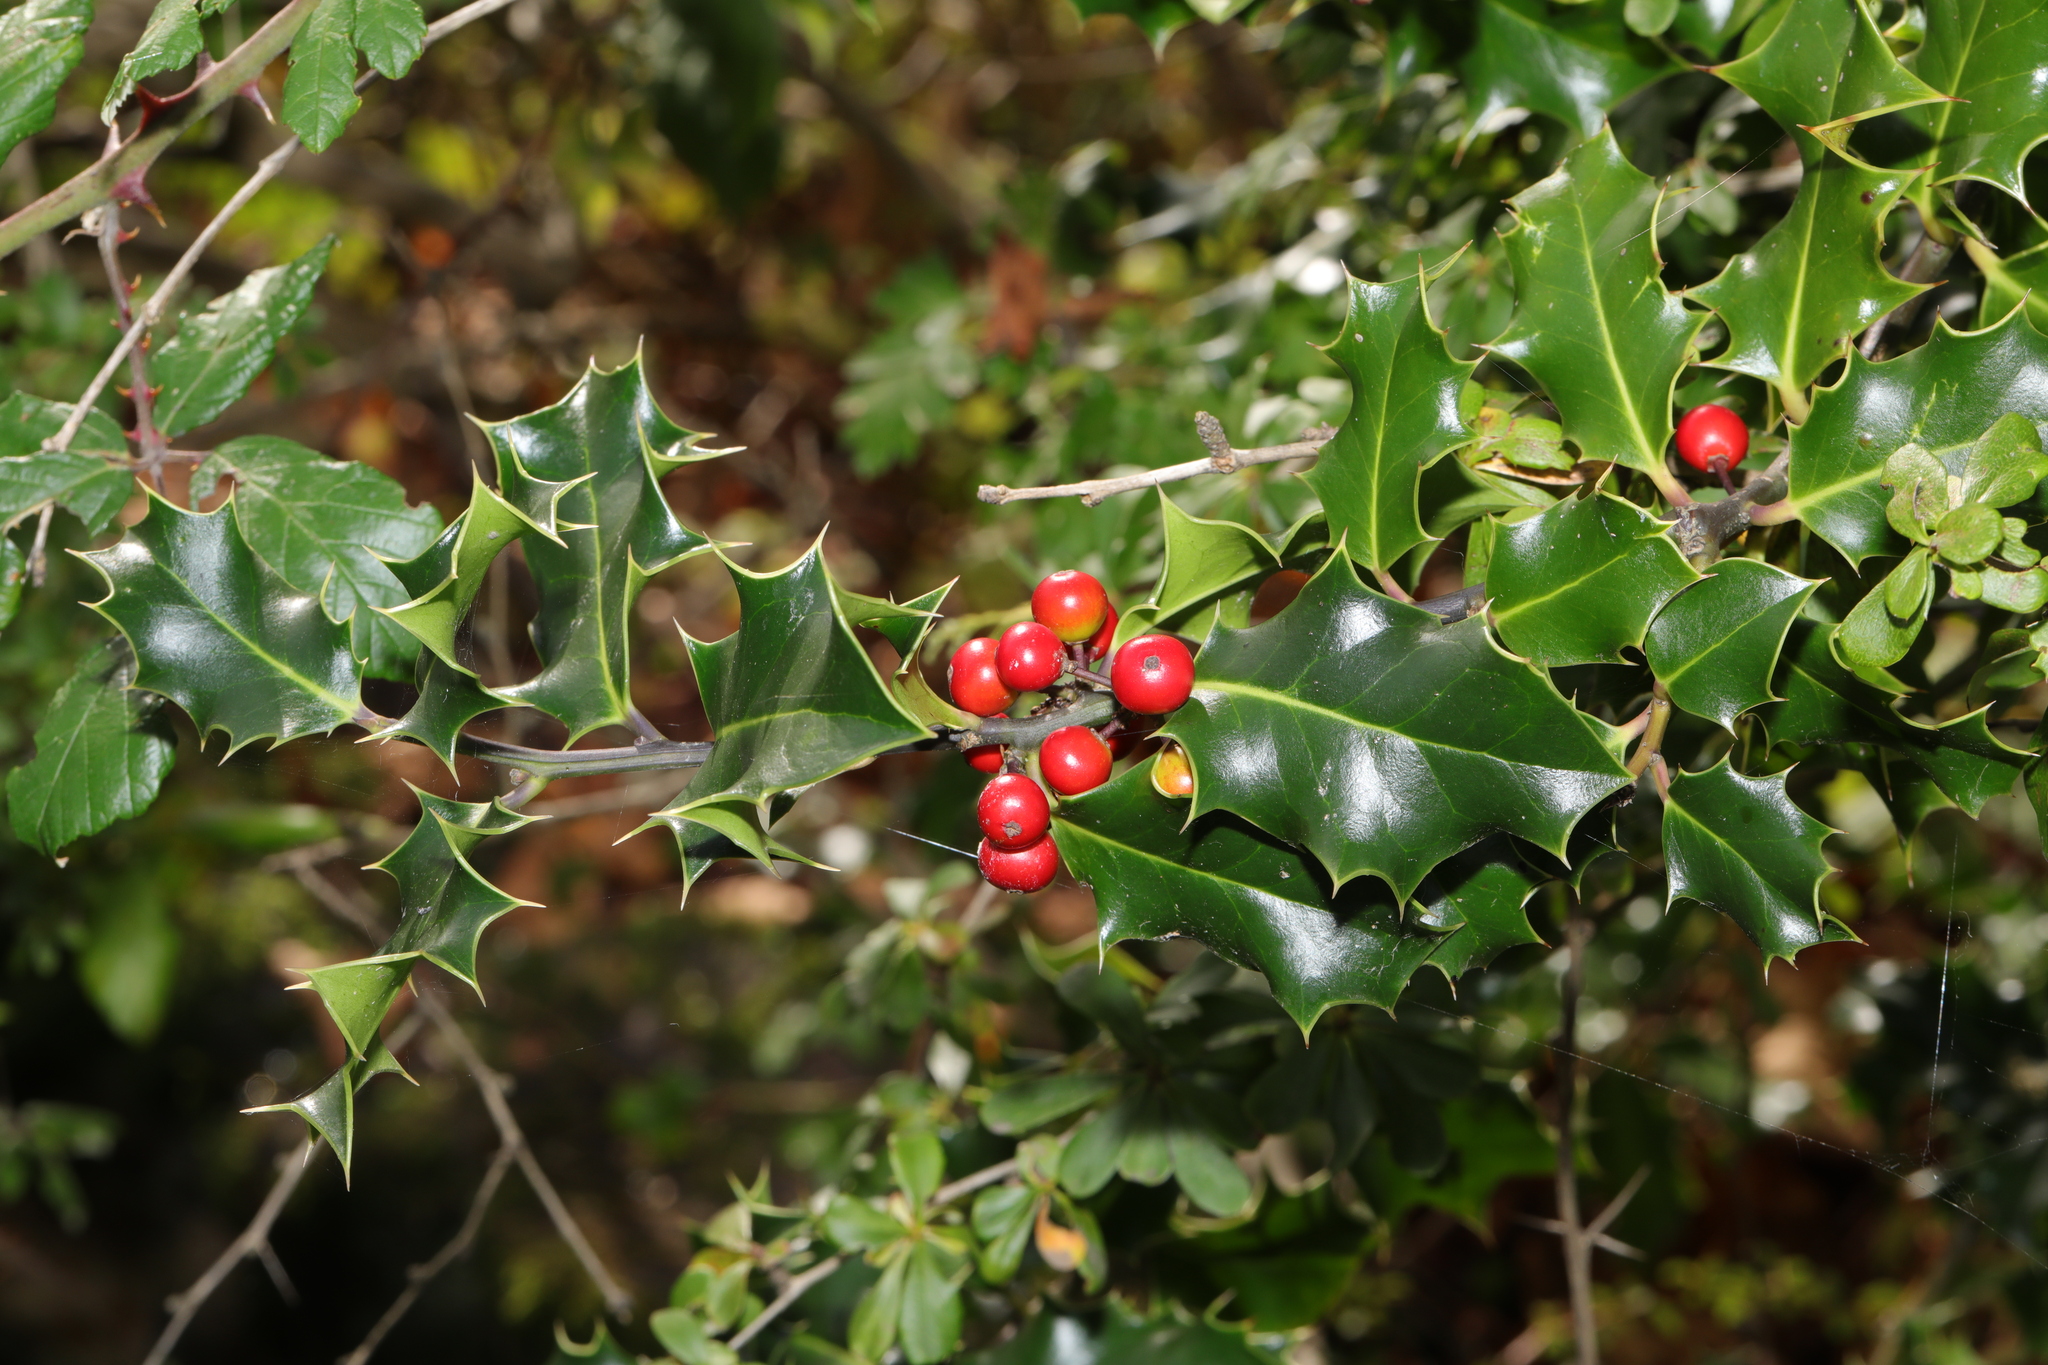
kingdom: Plantae
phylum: Tracheophyta
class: Magnoliopsida
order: Aquifoliales
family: Aquifoliaceae
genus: Ilex
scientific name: Ilex aquifolium
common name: English holly
